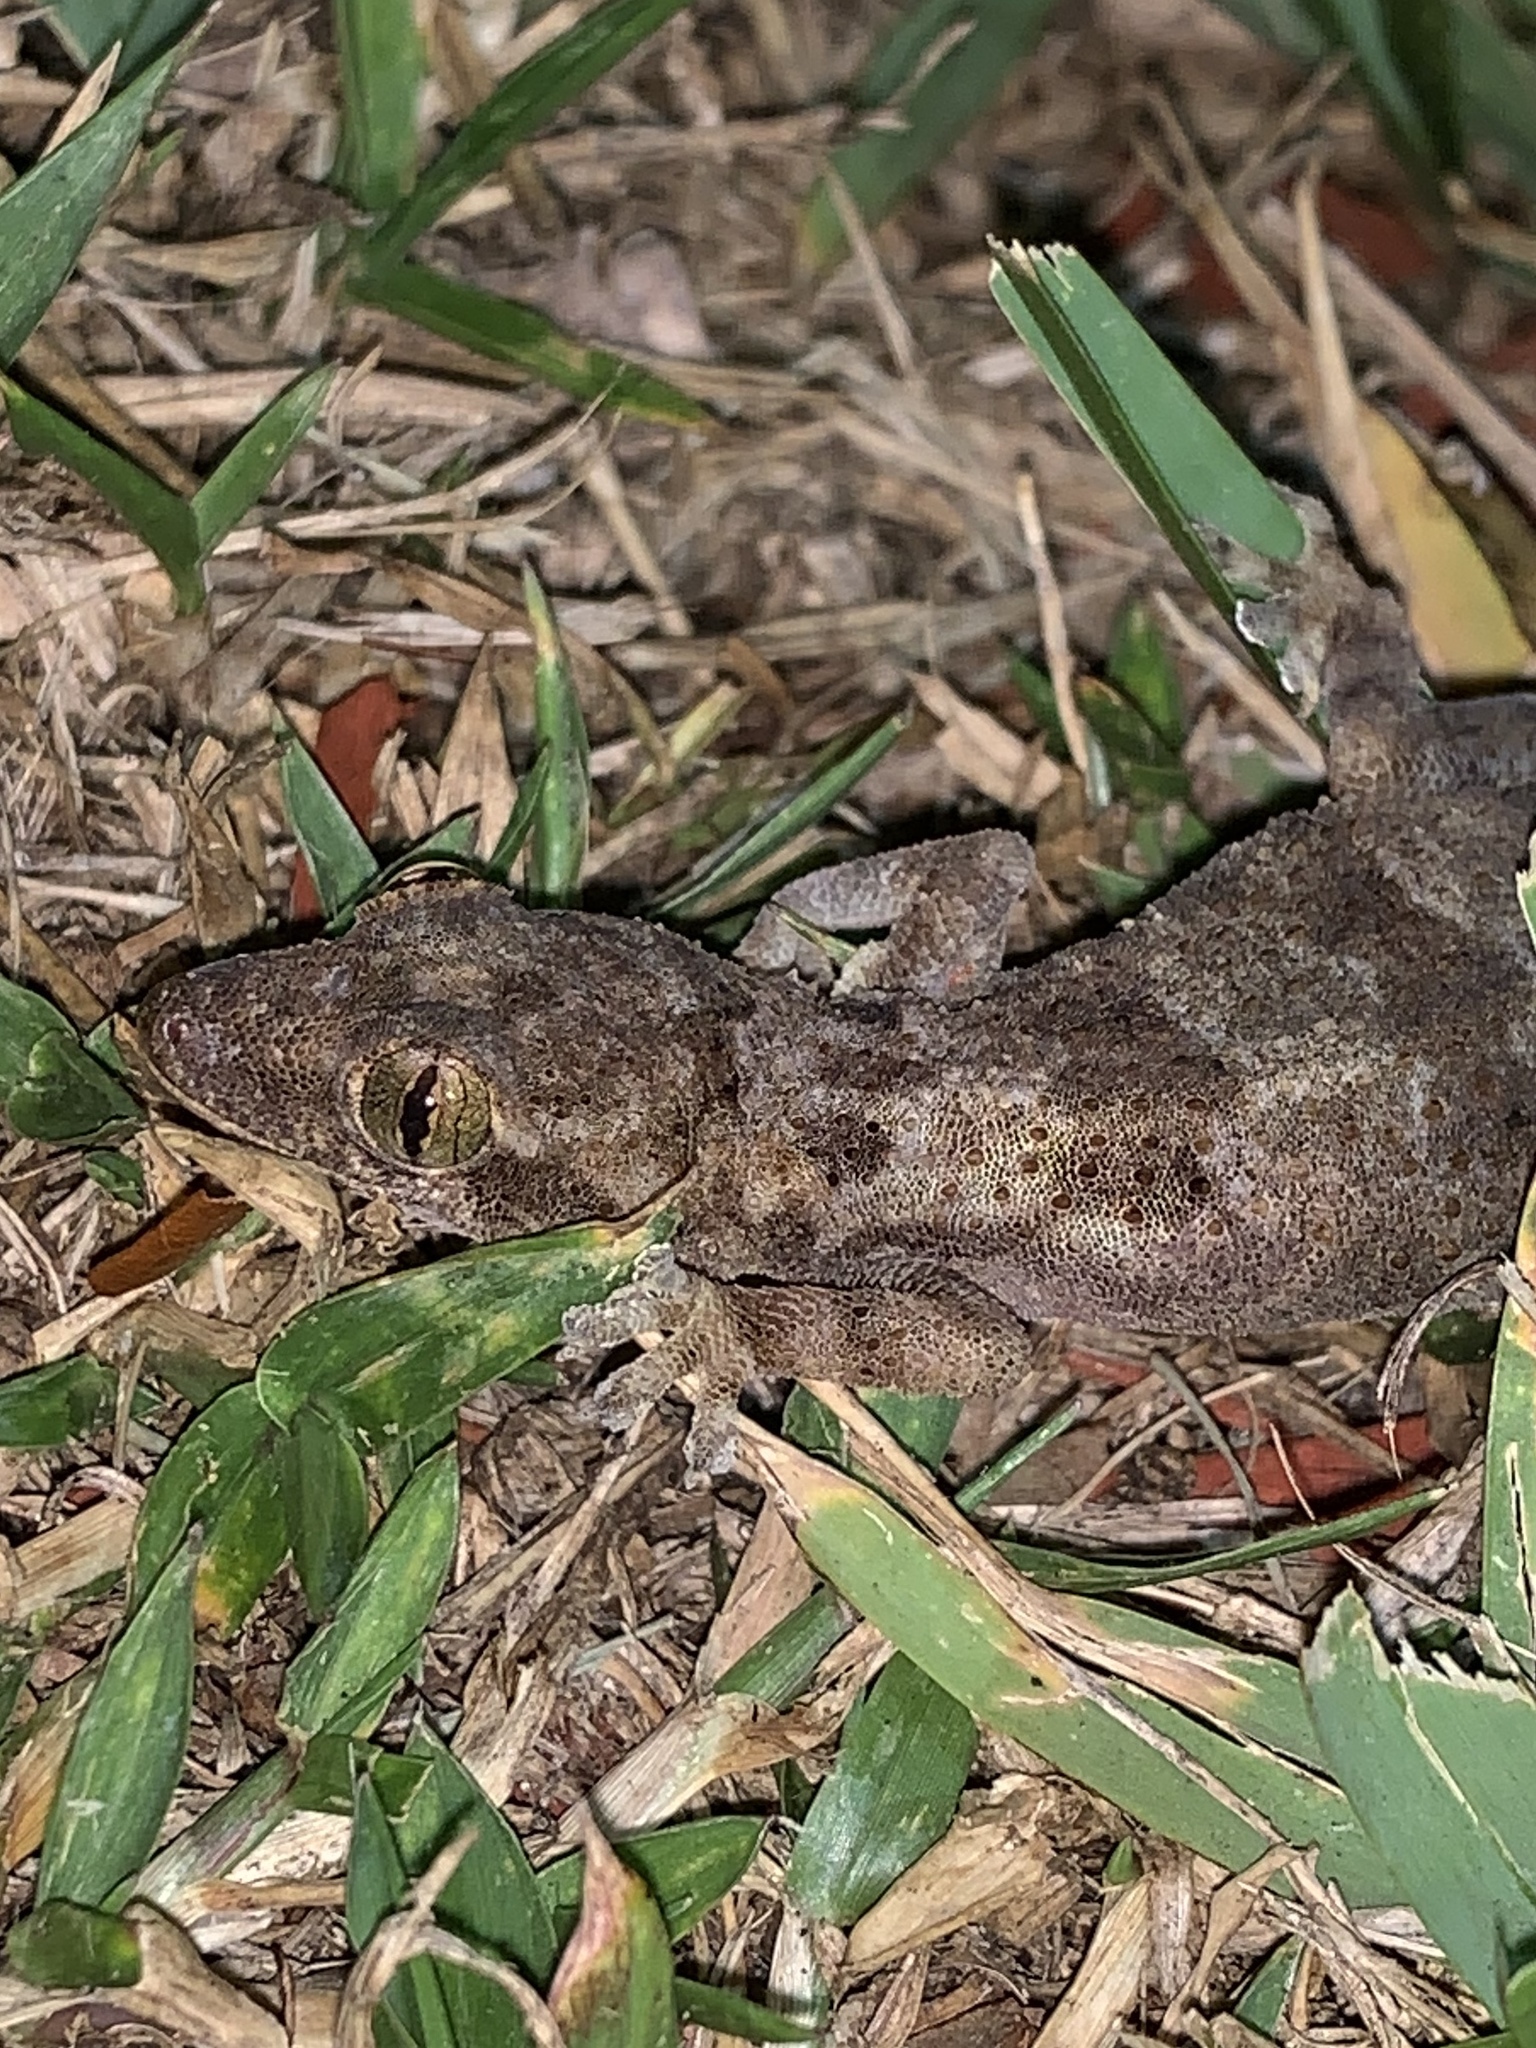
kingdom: Animalia
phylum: Chordata
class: Squamata
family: Gekkonidae
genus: Hemidactylus
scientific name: Hemidactylus mabouia
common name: House gecko
